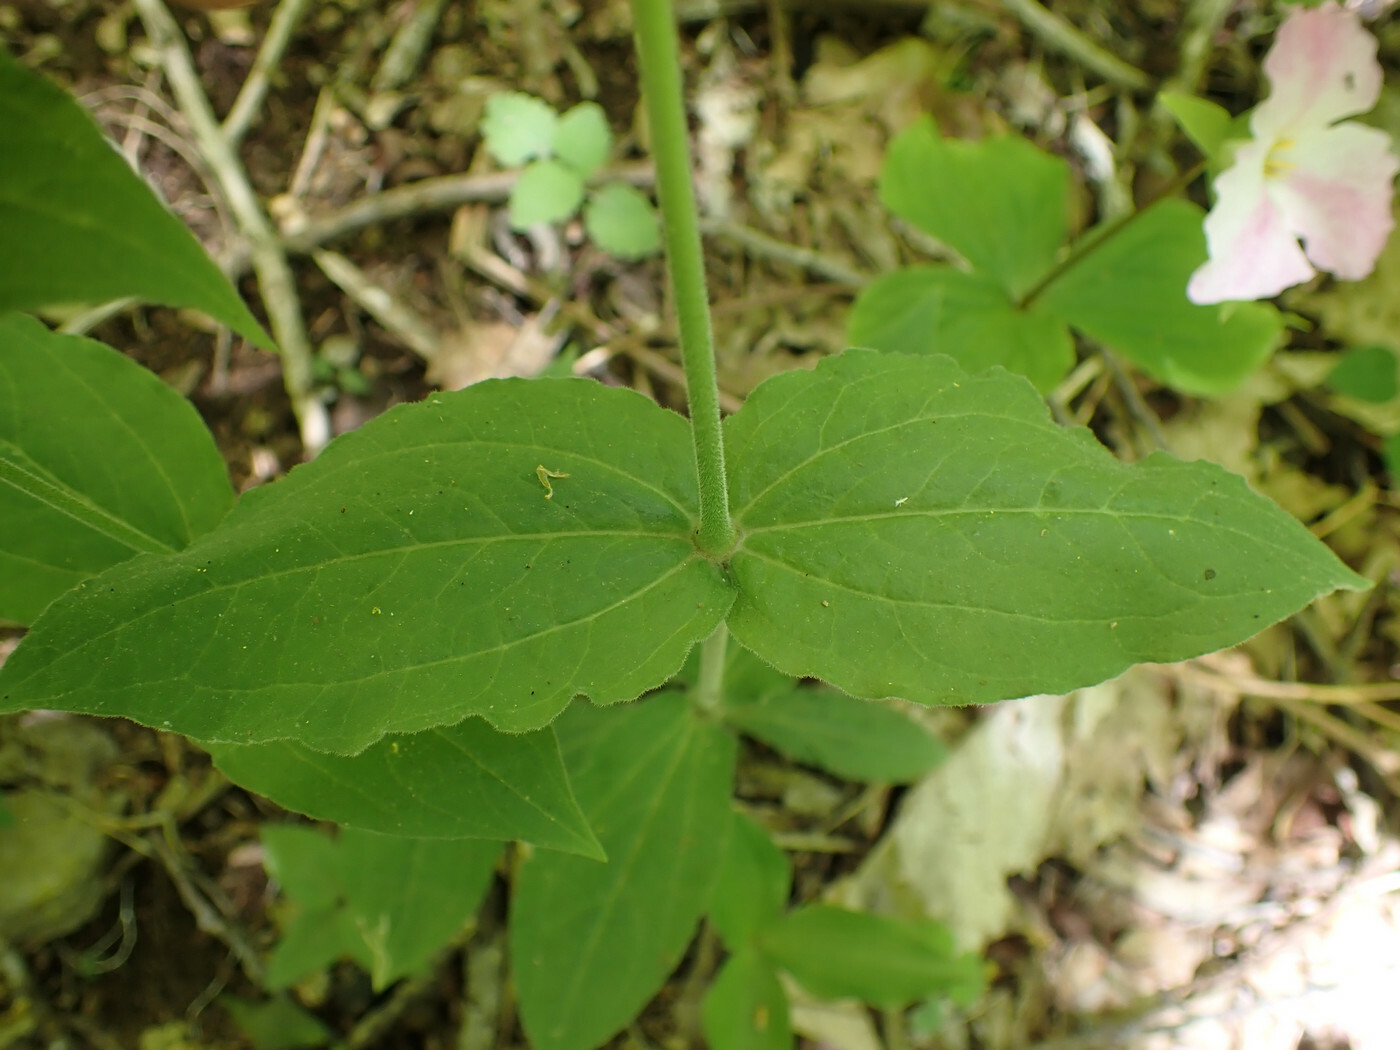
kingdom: Plantae
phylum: Tracheophyta
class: Magnoliopsida
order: Caryophyllales
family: Caryophyllaceae
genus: Silene
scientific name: Silene ovata
